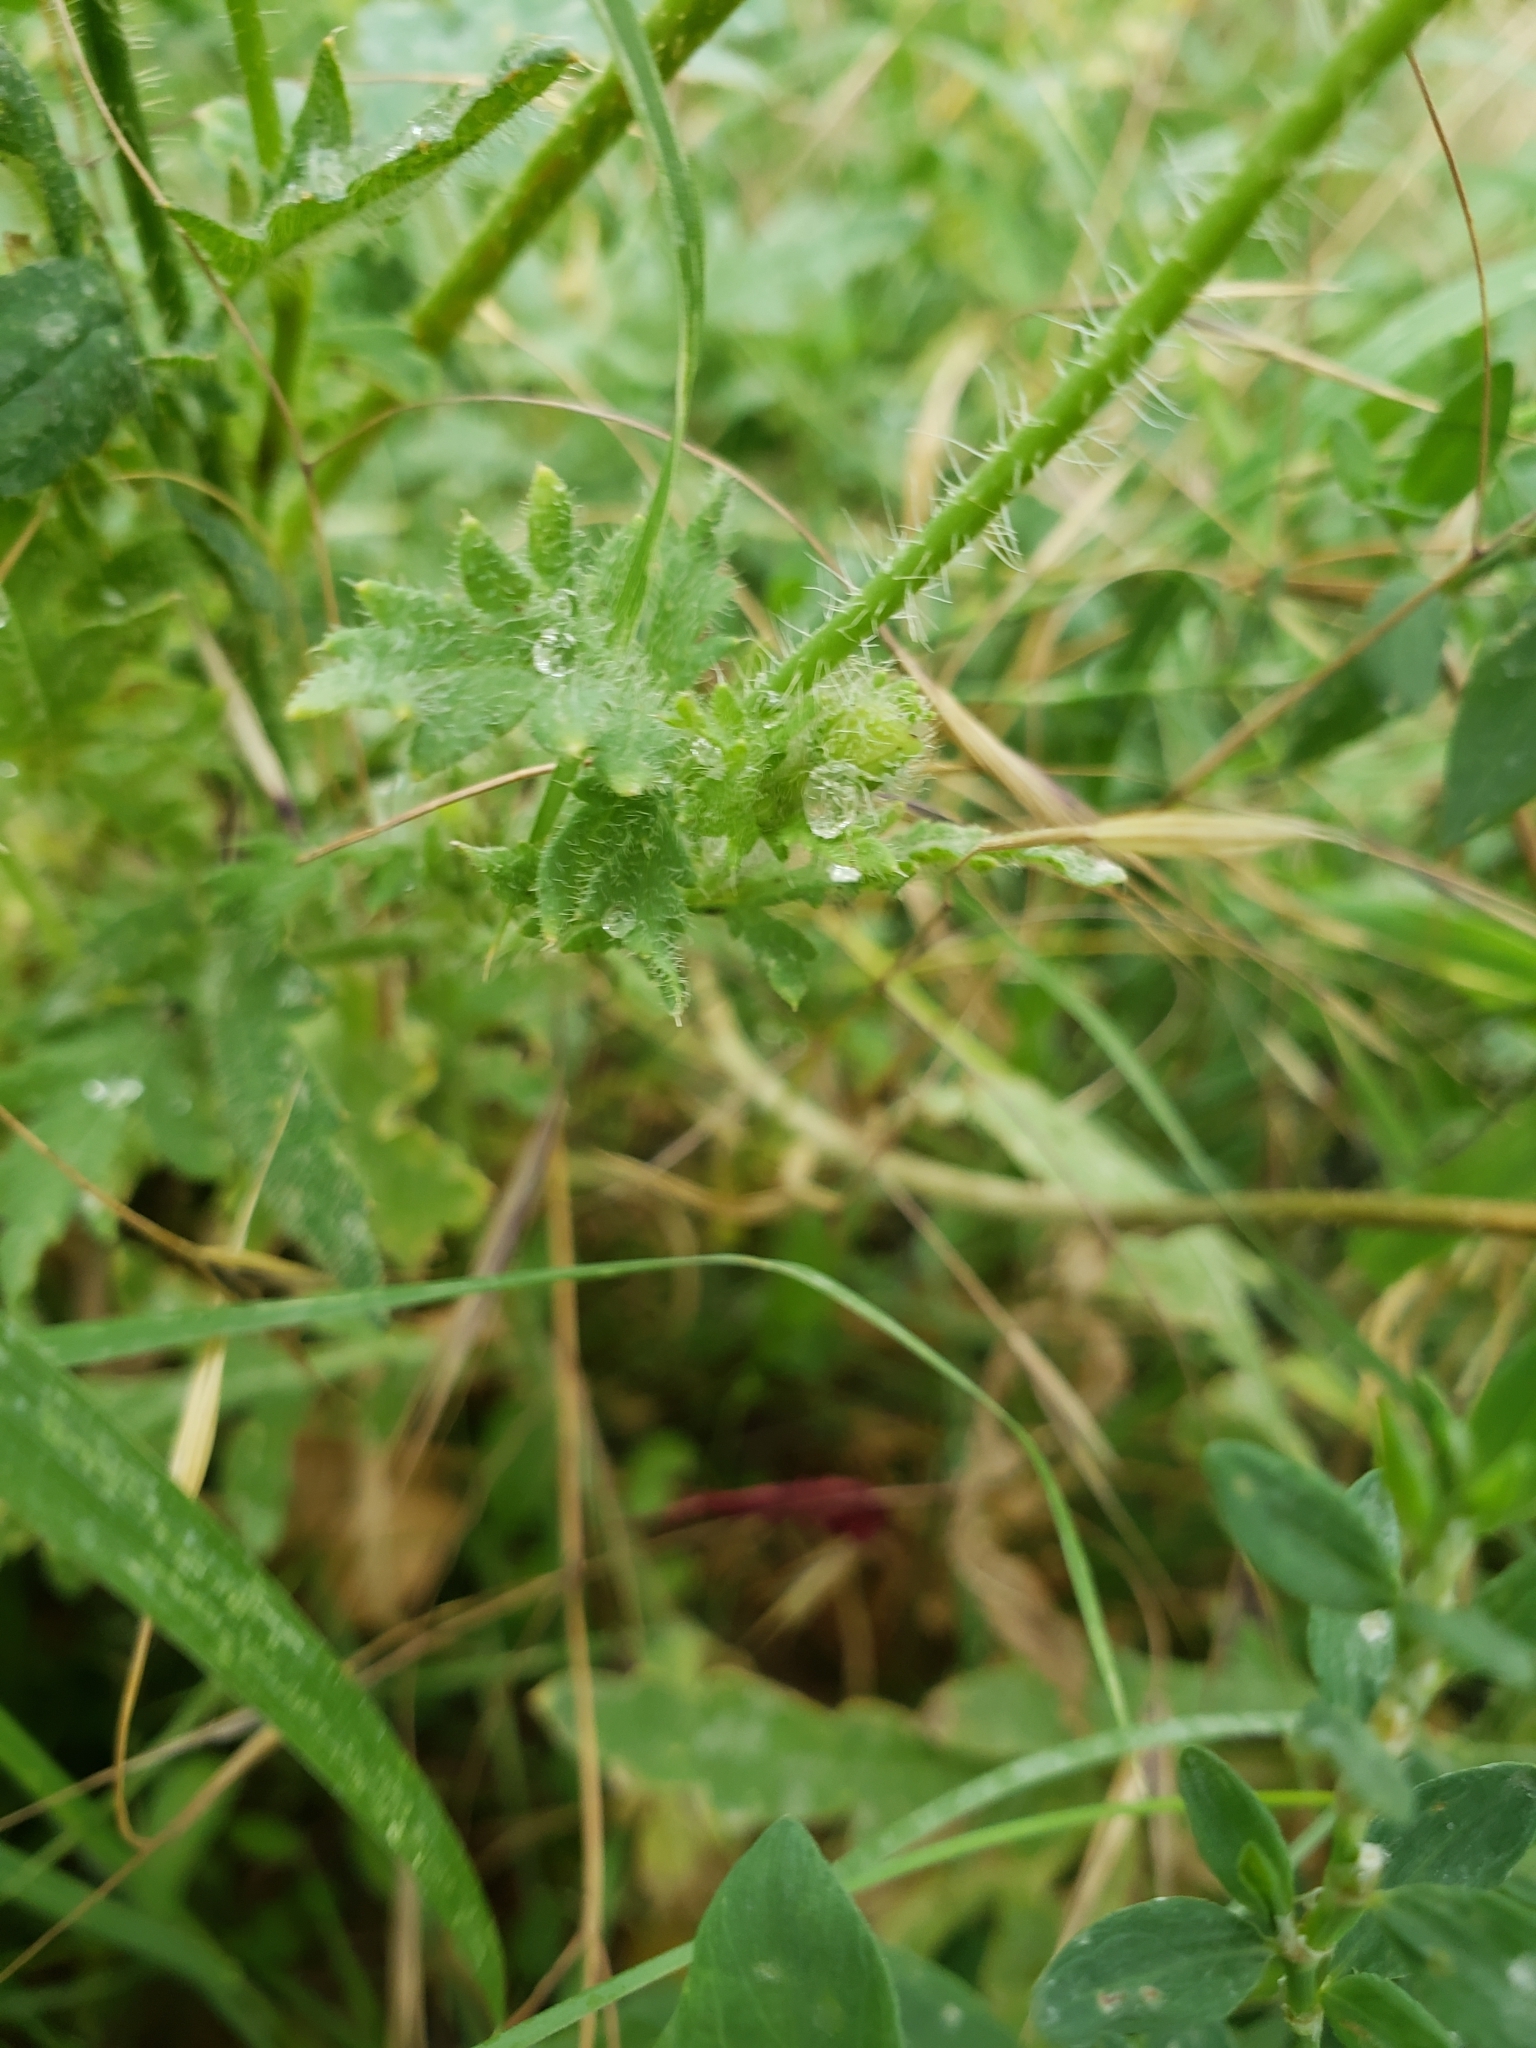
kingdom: Plantae
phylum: Tracheophyta
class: Magnoliopsida
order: Ranunculales
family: Papaveraceae
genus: Papaver
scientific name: Papaver rhoeas
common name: Corn poppy
